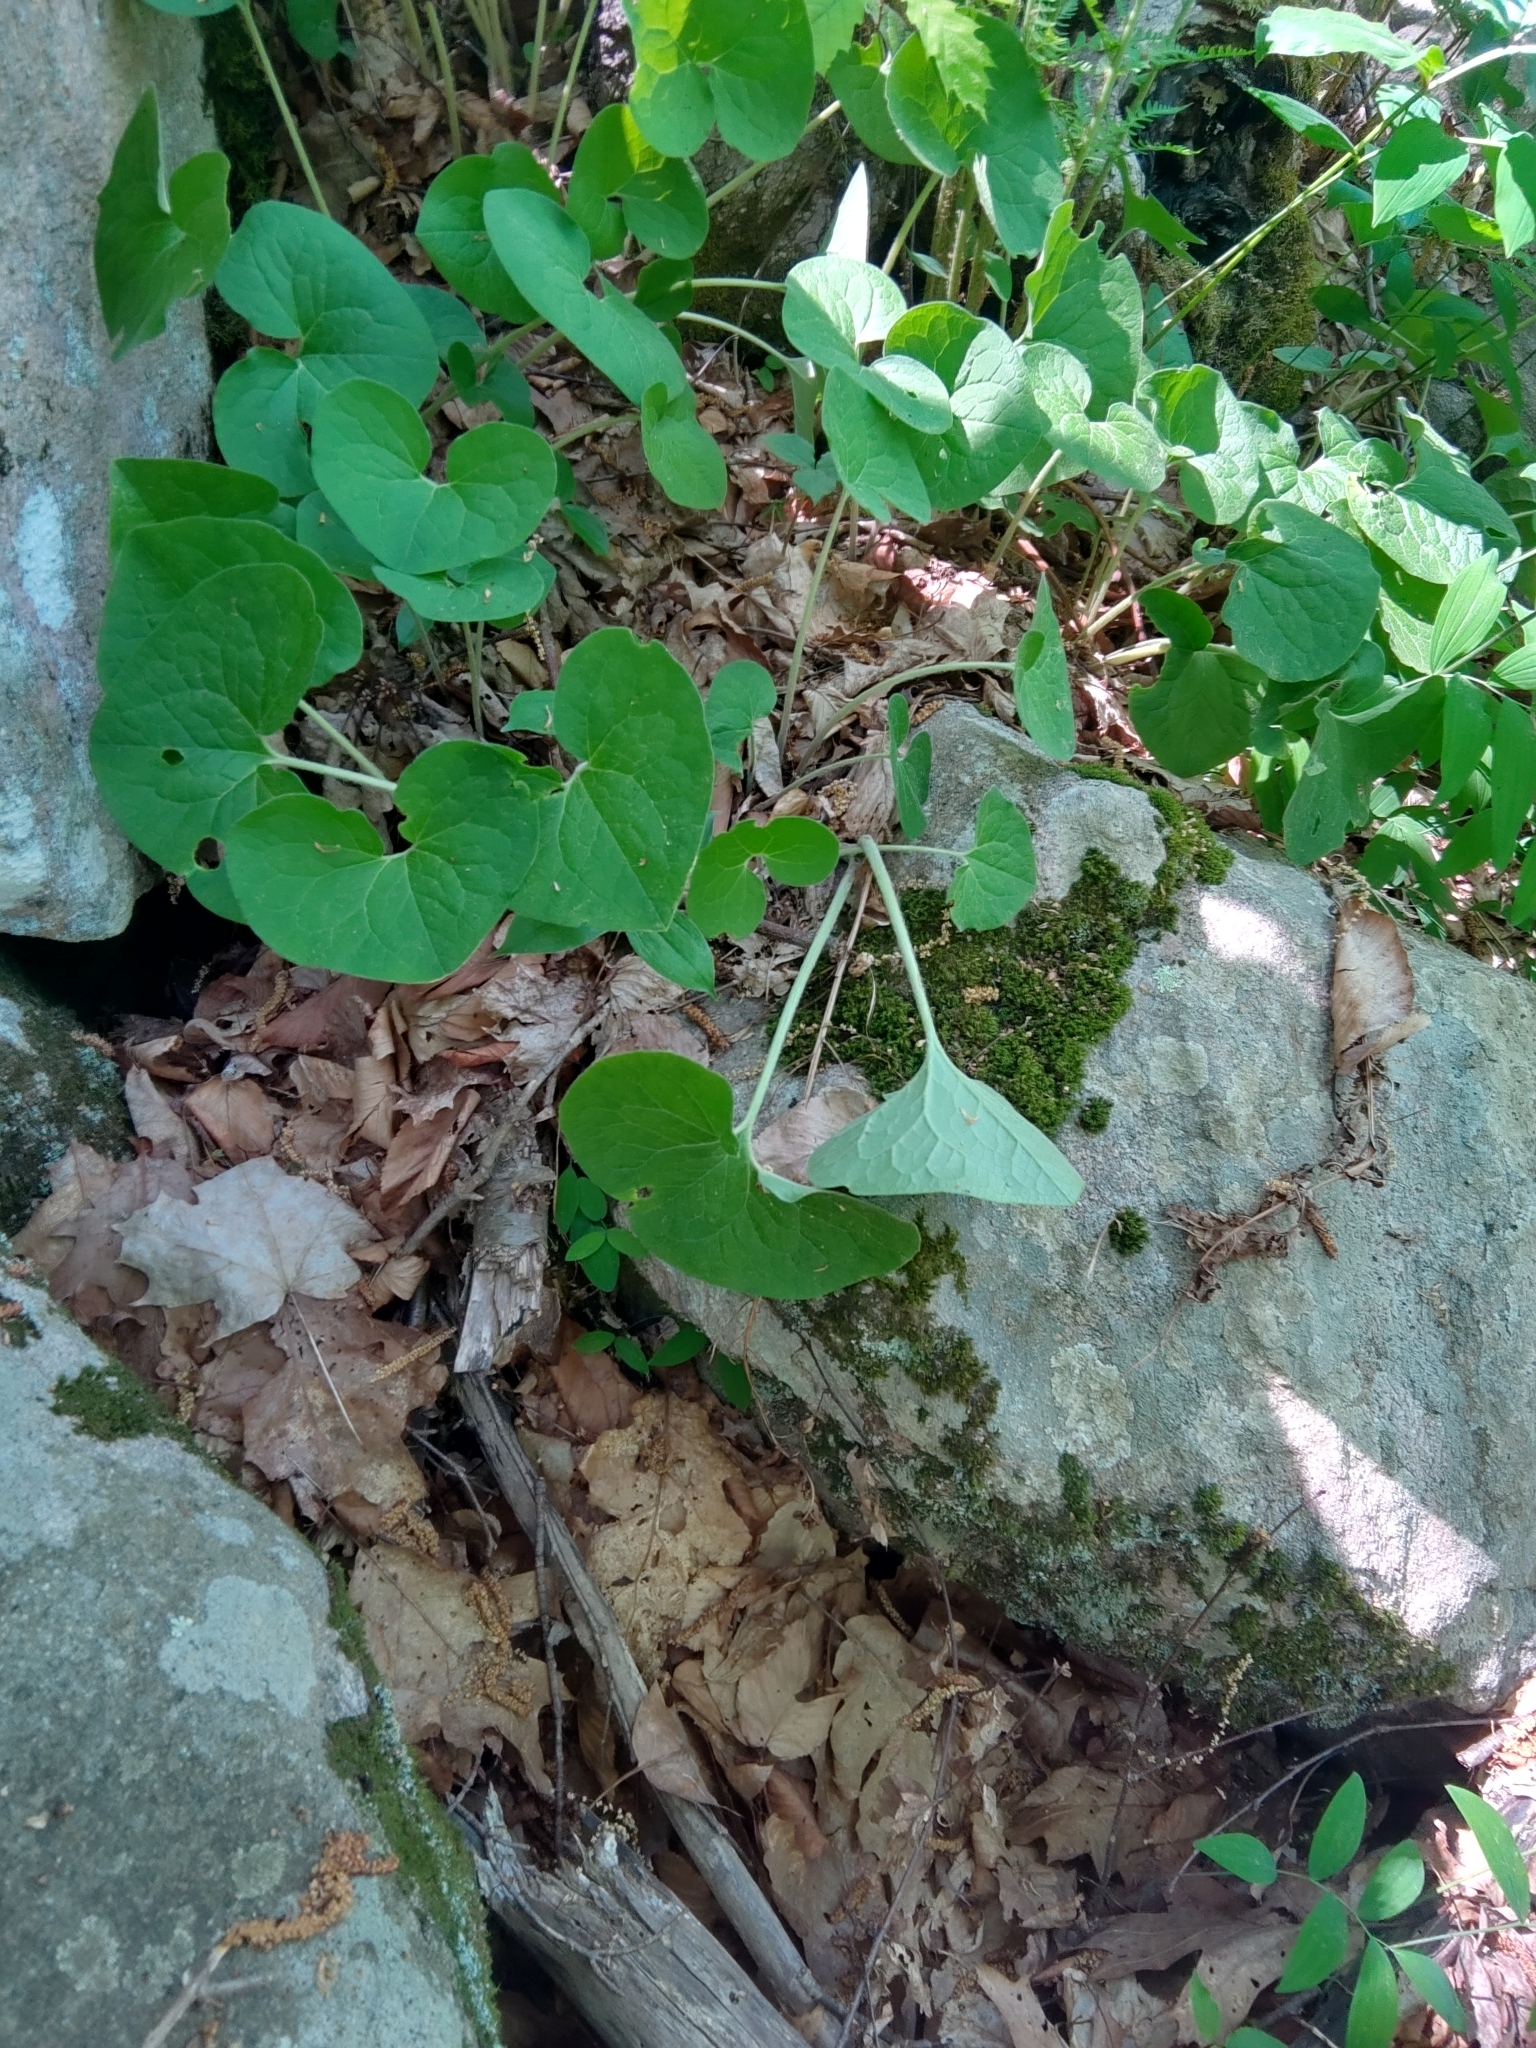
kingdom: Plantae
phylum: Tracheophyta
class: Magnoliopsida
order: Piperales
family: Aristolochiaceae
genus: Asarum
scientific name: Asarum canadense
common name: Wild ginger
